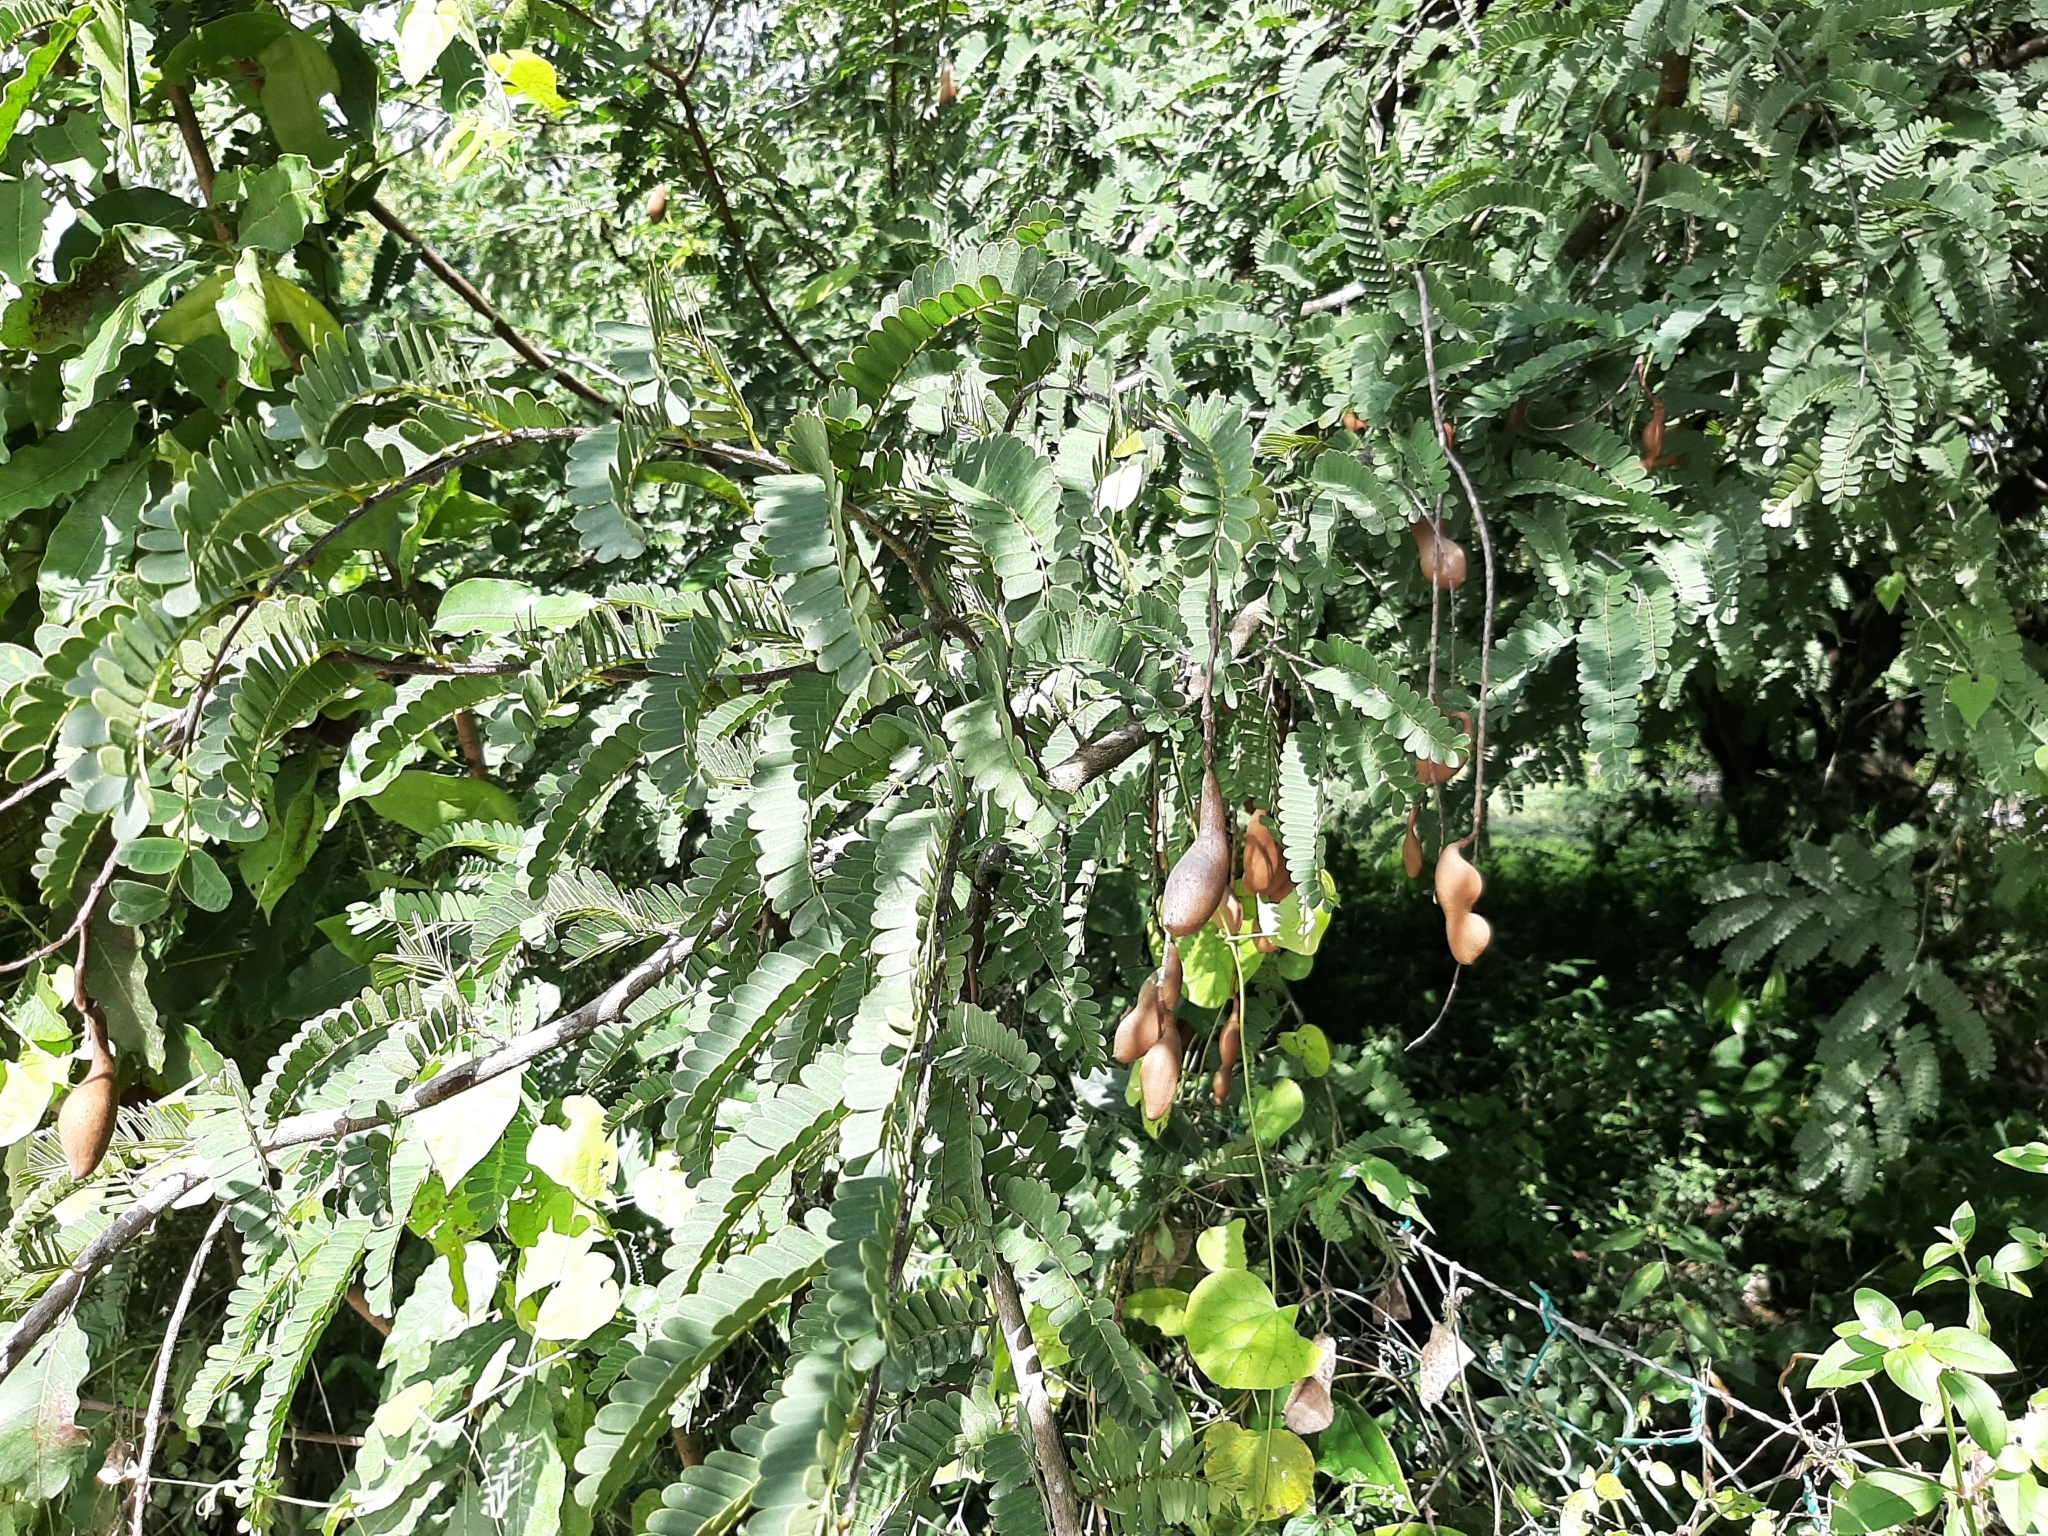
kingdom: Plantae
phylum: Tracheophyta
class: Magnoliopsida
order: Fabales
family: Fabaceae
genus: Tamarindus
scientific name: Tamarindus indica
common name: Tamarind
